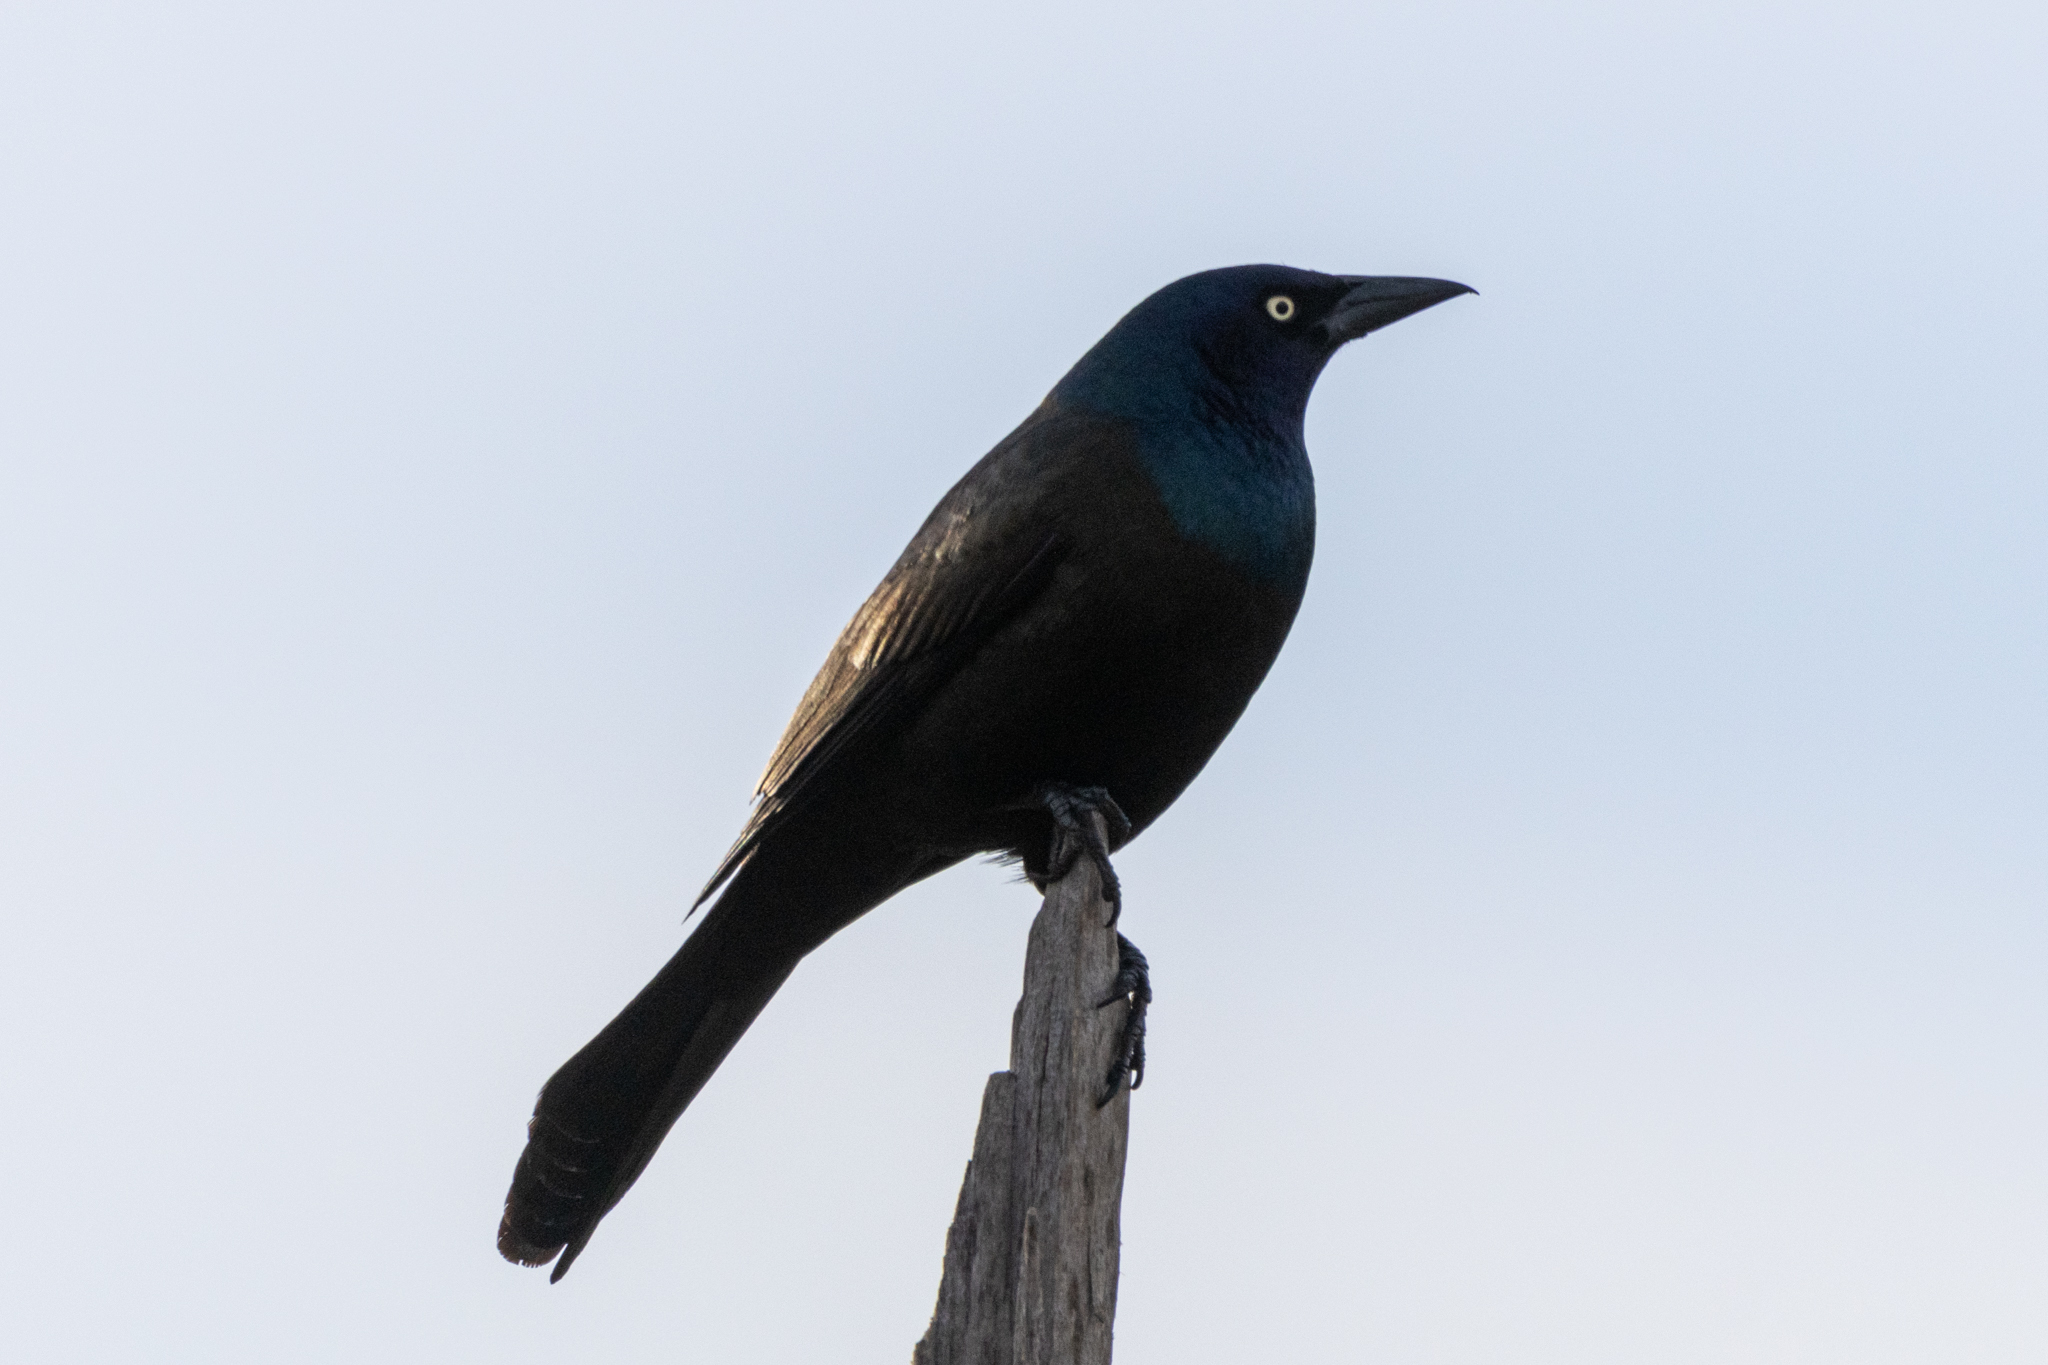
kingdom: Animalia
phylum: Chordata
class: Aves
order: Passeriformes
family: Icteridae
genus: Quiscalus
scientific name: Quiscalus quiscula
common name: Common grackle
